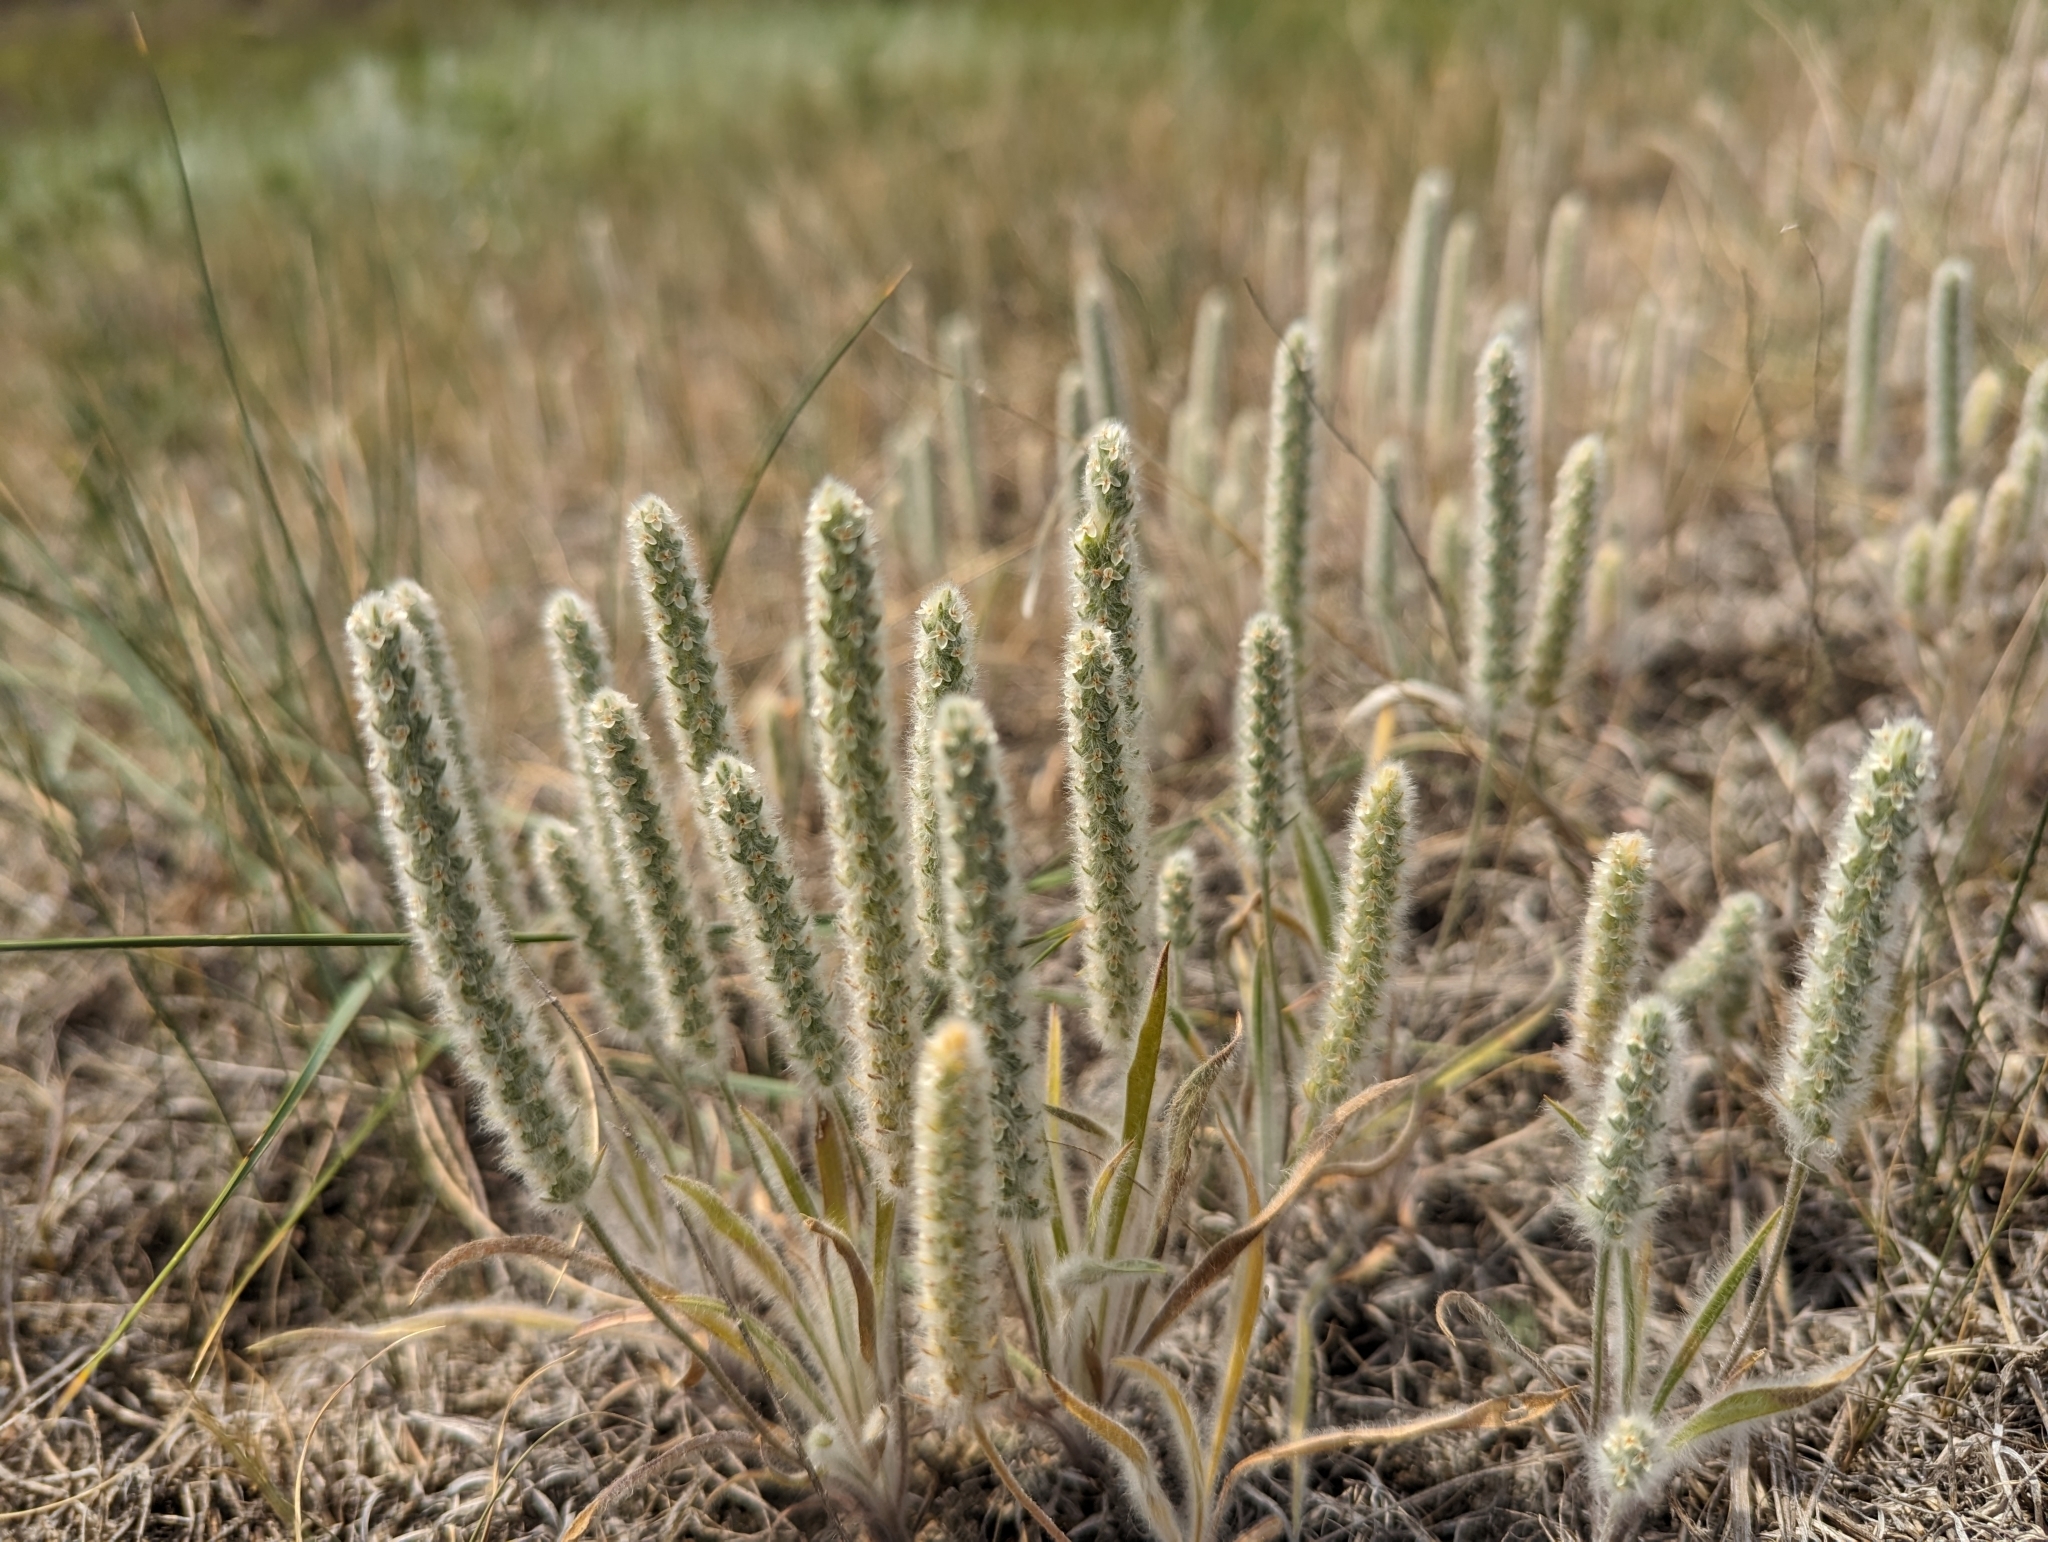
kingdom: Plantae
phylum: Tracheophyta
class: Magnoliopsida
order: Lamiales
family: Plantaginaceae
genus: Plantago
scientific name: Plantago patagonica
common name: Patagonia indian-wheat
